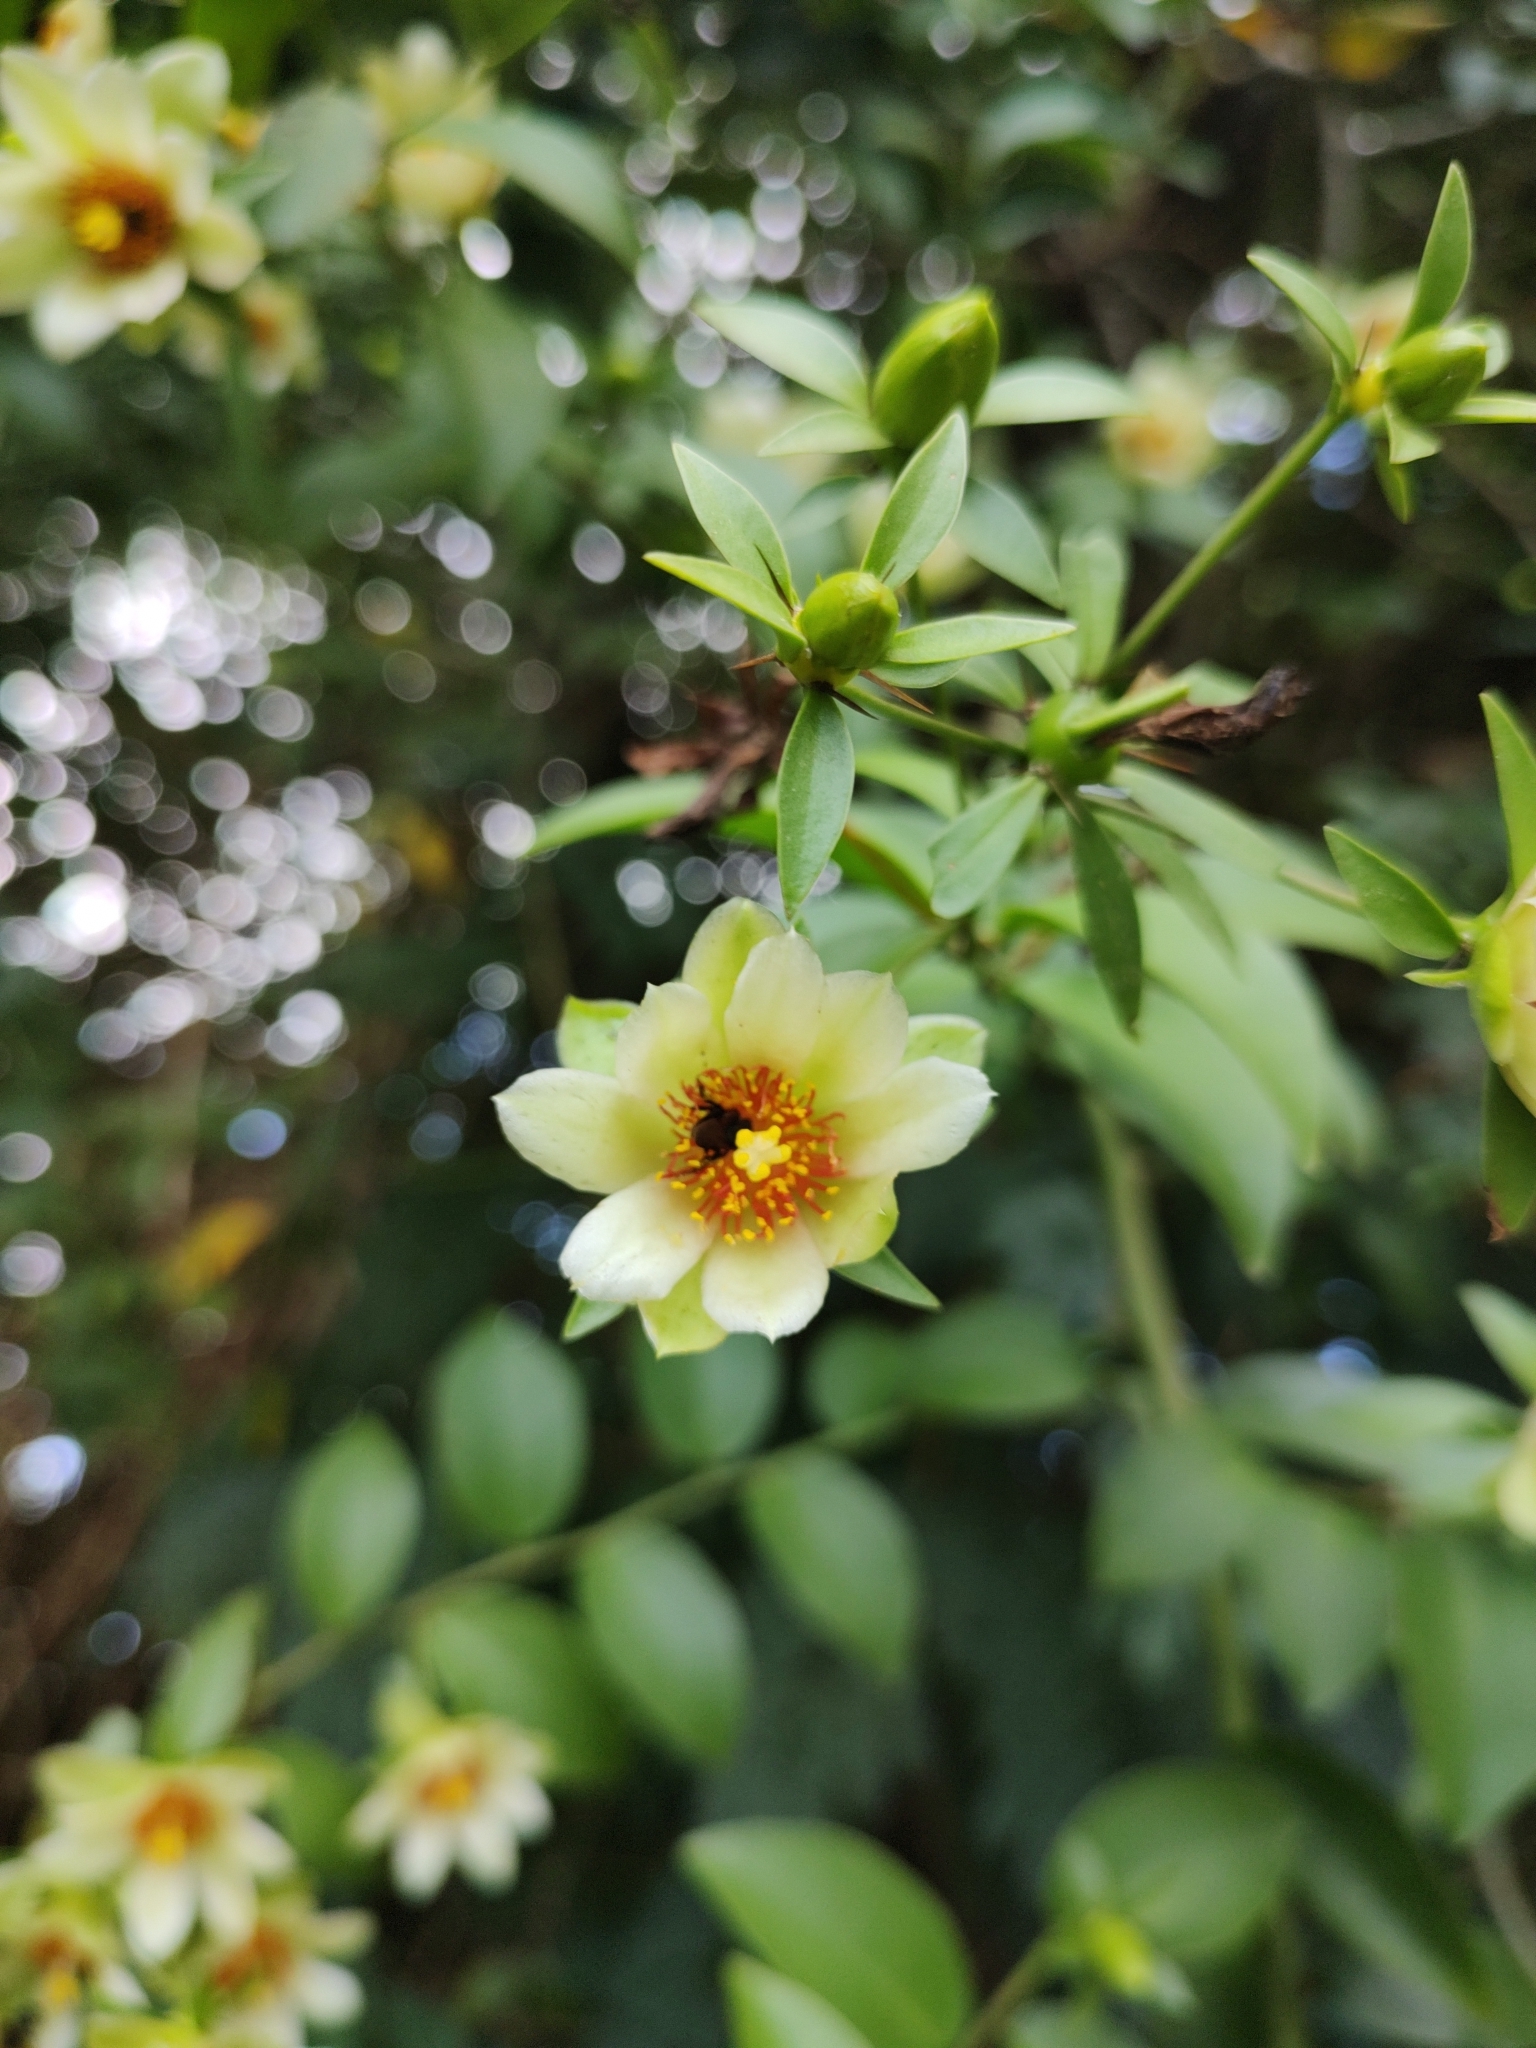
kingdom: Plantae
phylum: Tracheophyta
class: Magnoliopsida
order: Caryophyllales
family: Cactaceae
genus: Pereskia
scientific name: Pereskia aculeata
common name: Barbados gooseberry
